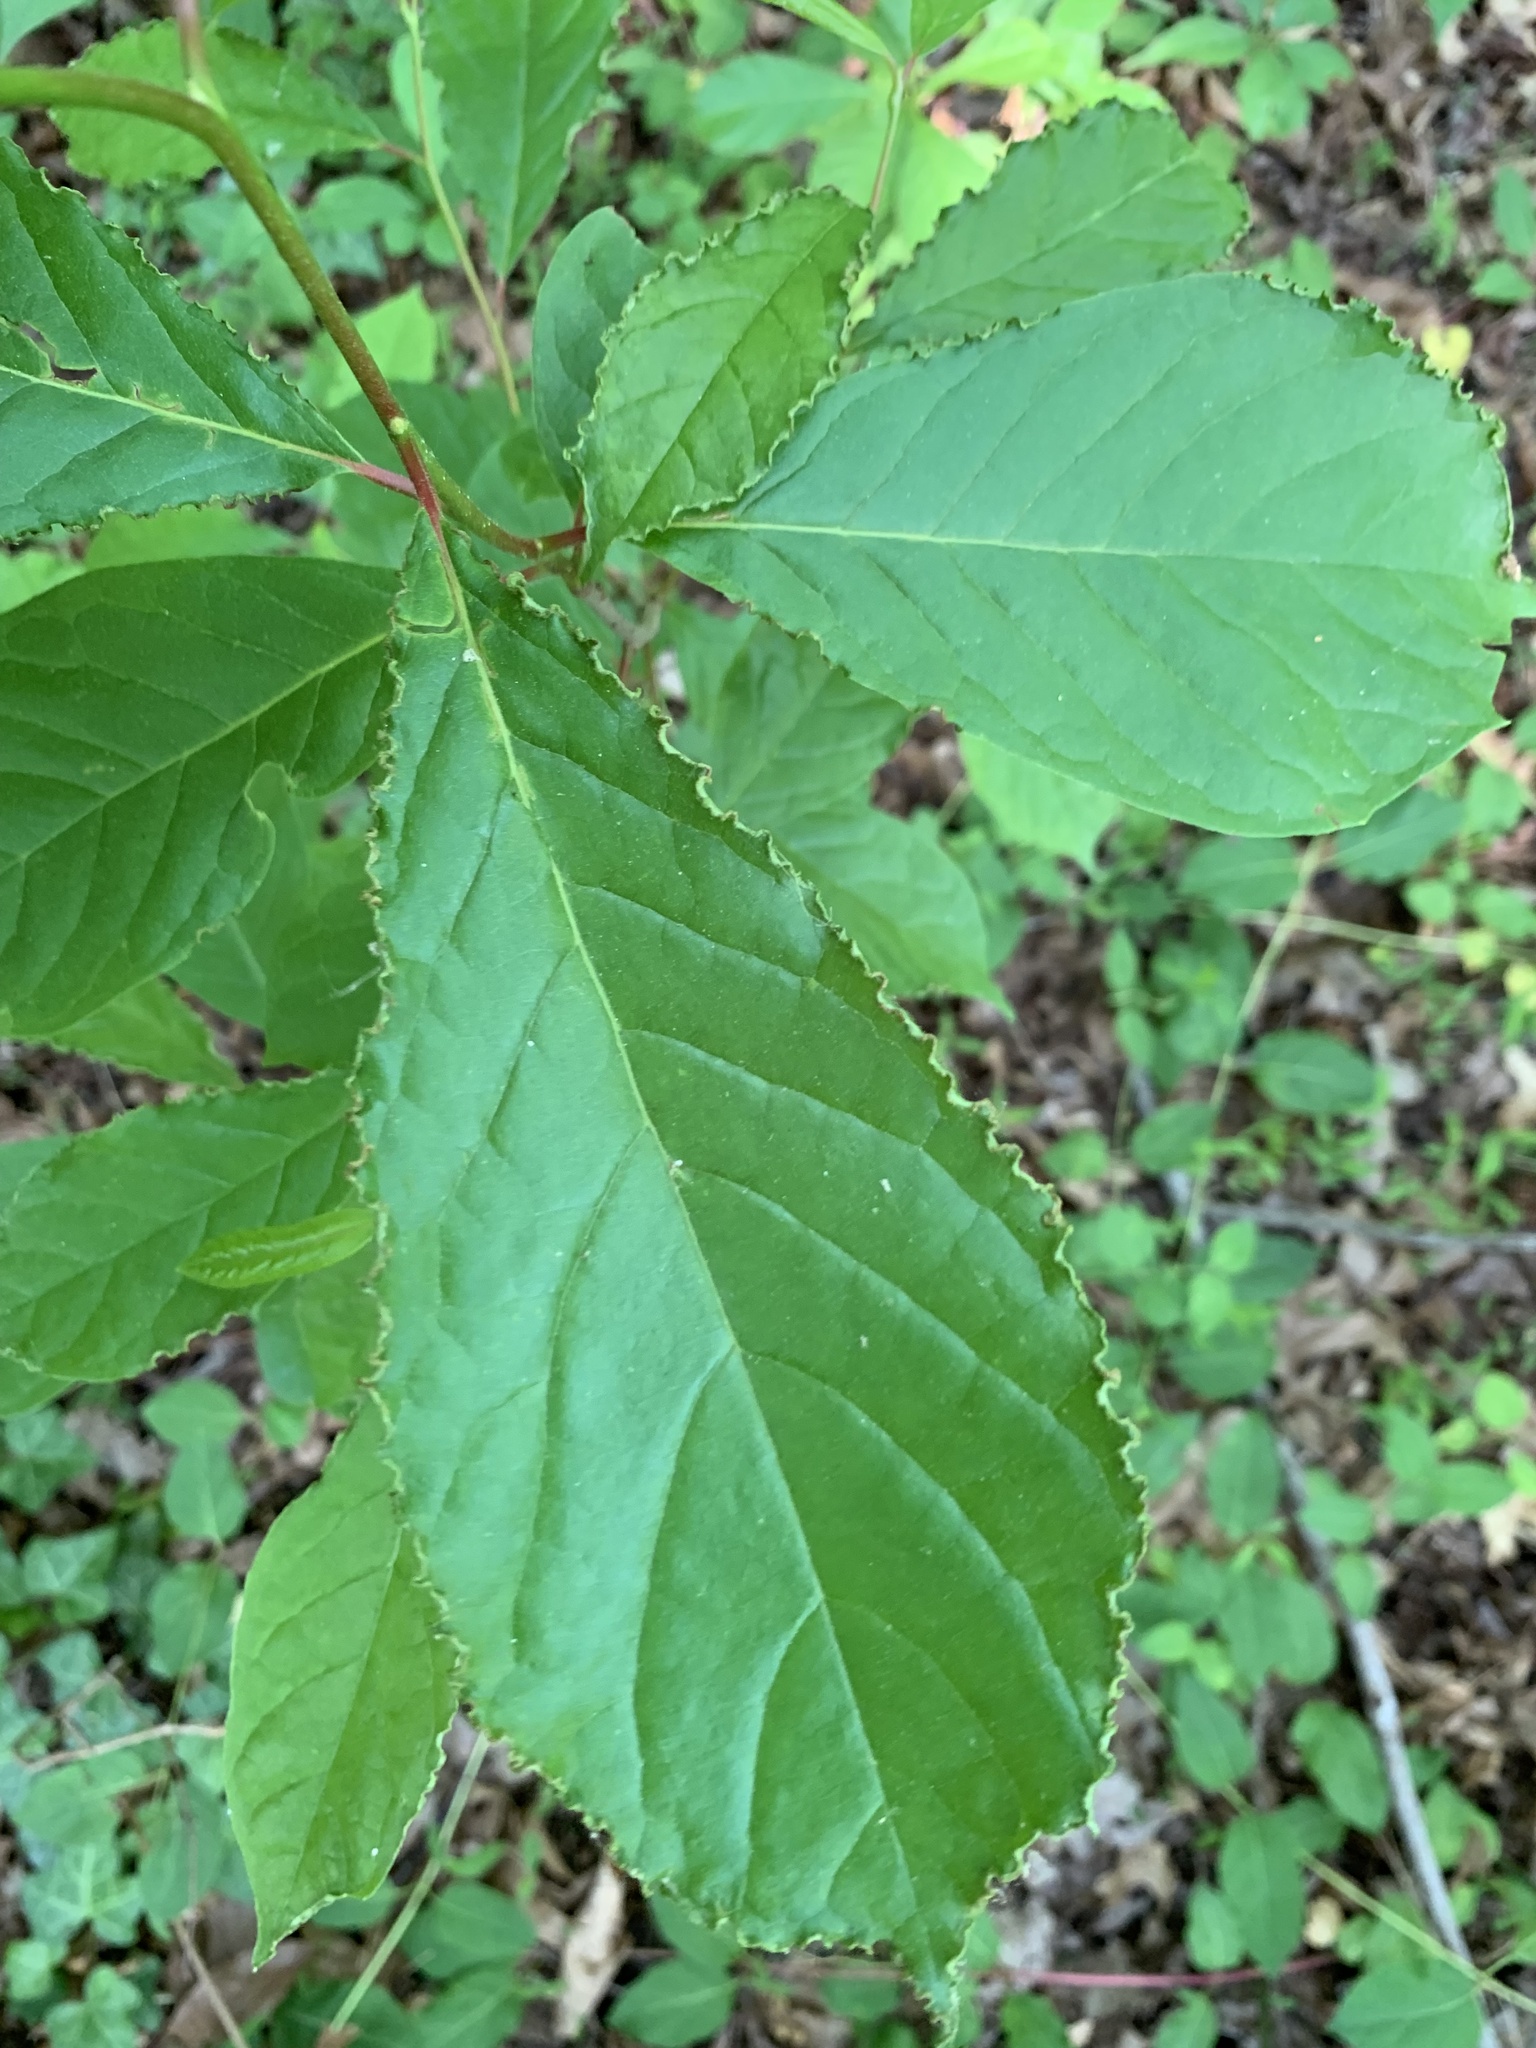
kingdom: Animalia
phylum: Arthropoda
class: Arachnida
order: Trombidiformes
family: Eriophyidae
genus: Aceria
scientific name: Aceria
